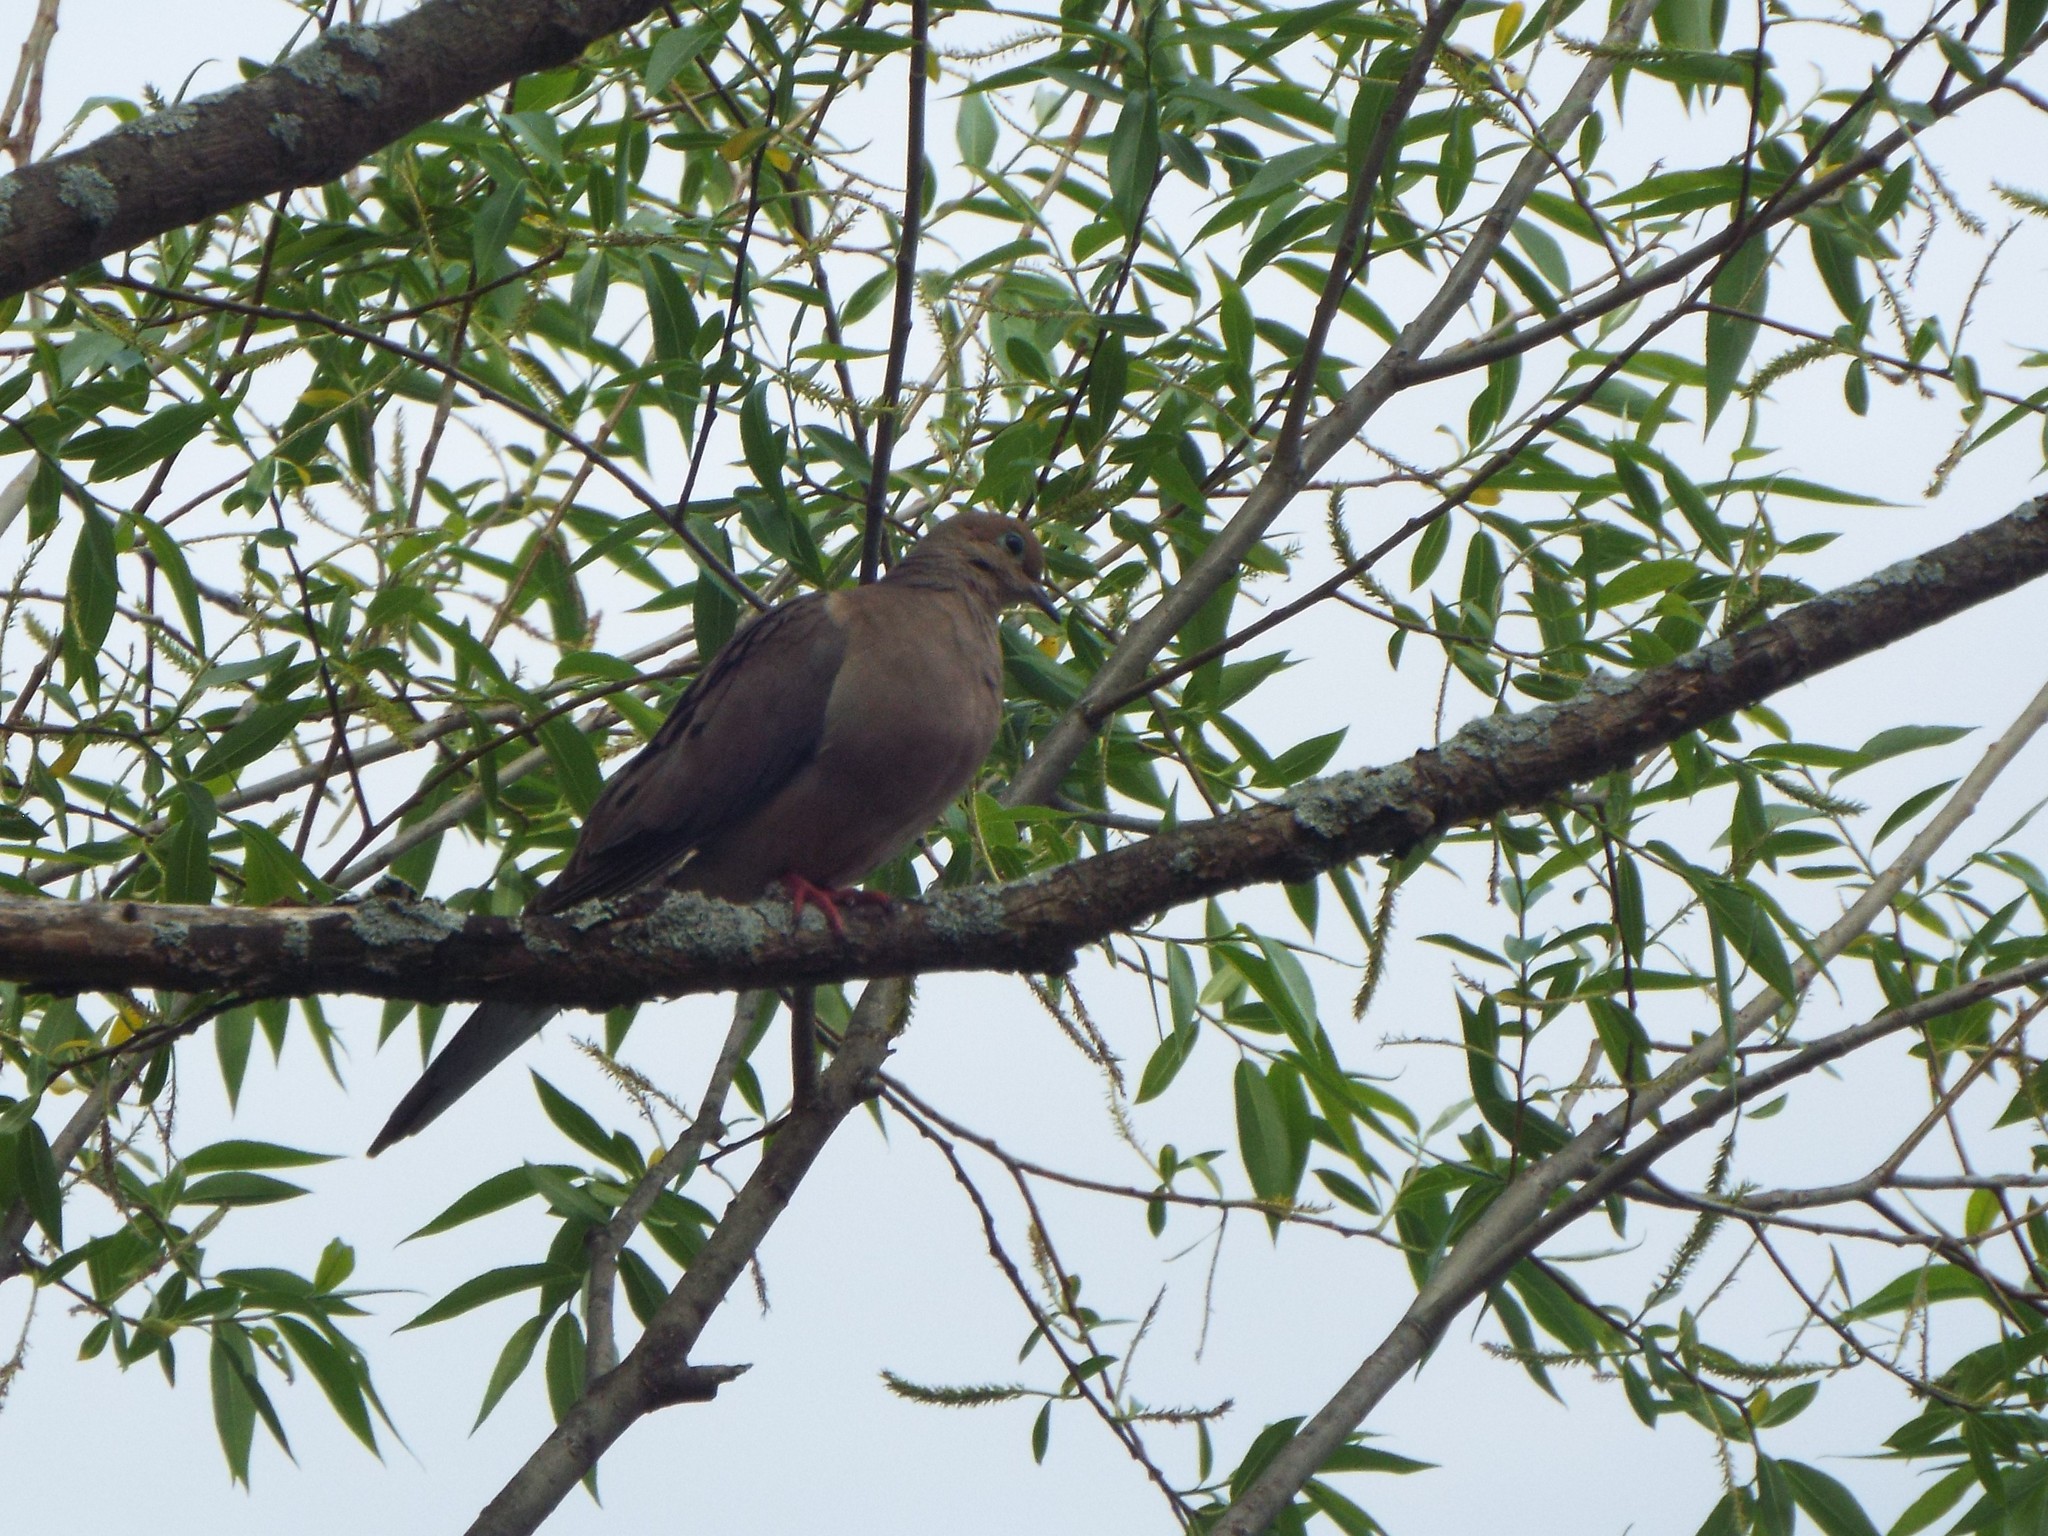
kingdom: Animalia
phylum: Chordata
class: Aves
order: Columbiformes
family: Columbidae
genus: Zenaida
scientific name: Zenaida macroura
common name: Mourning dove
